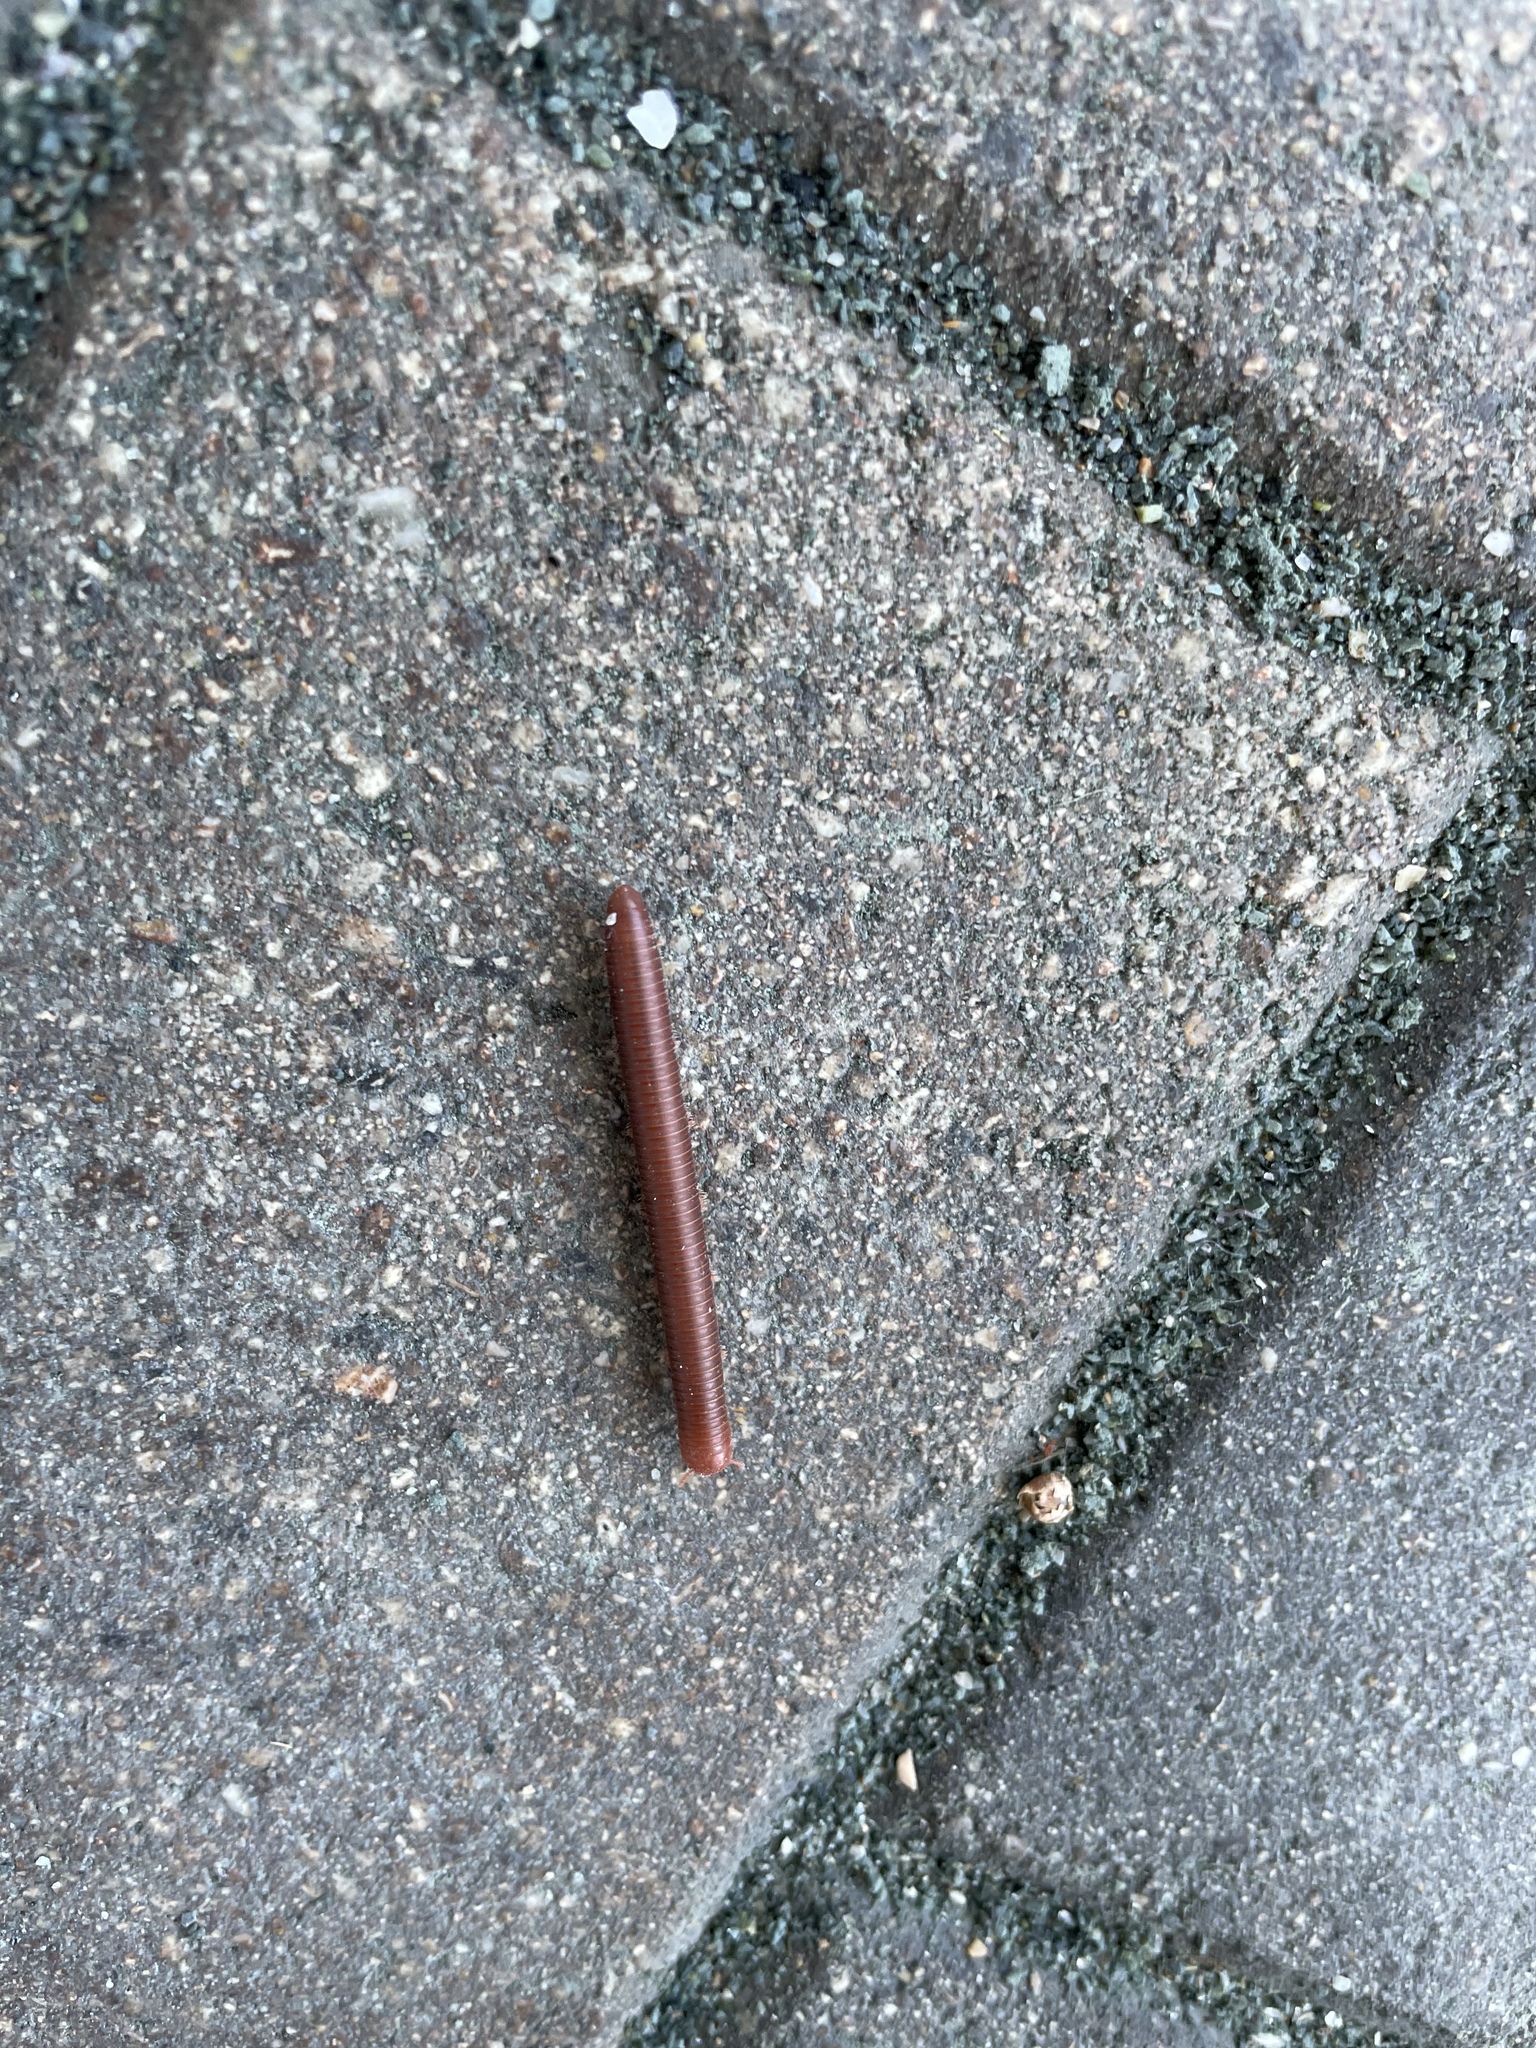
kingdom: Animalia
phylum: Arthropoda
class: Diplopoda
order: Spirobolida
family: Pachybolidae
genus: Trigoniulus
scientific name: Trigoniulus corallinus
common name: Millipede
